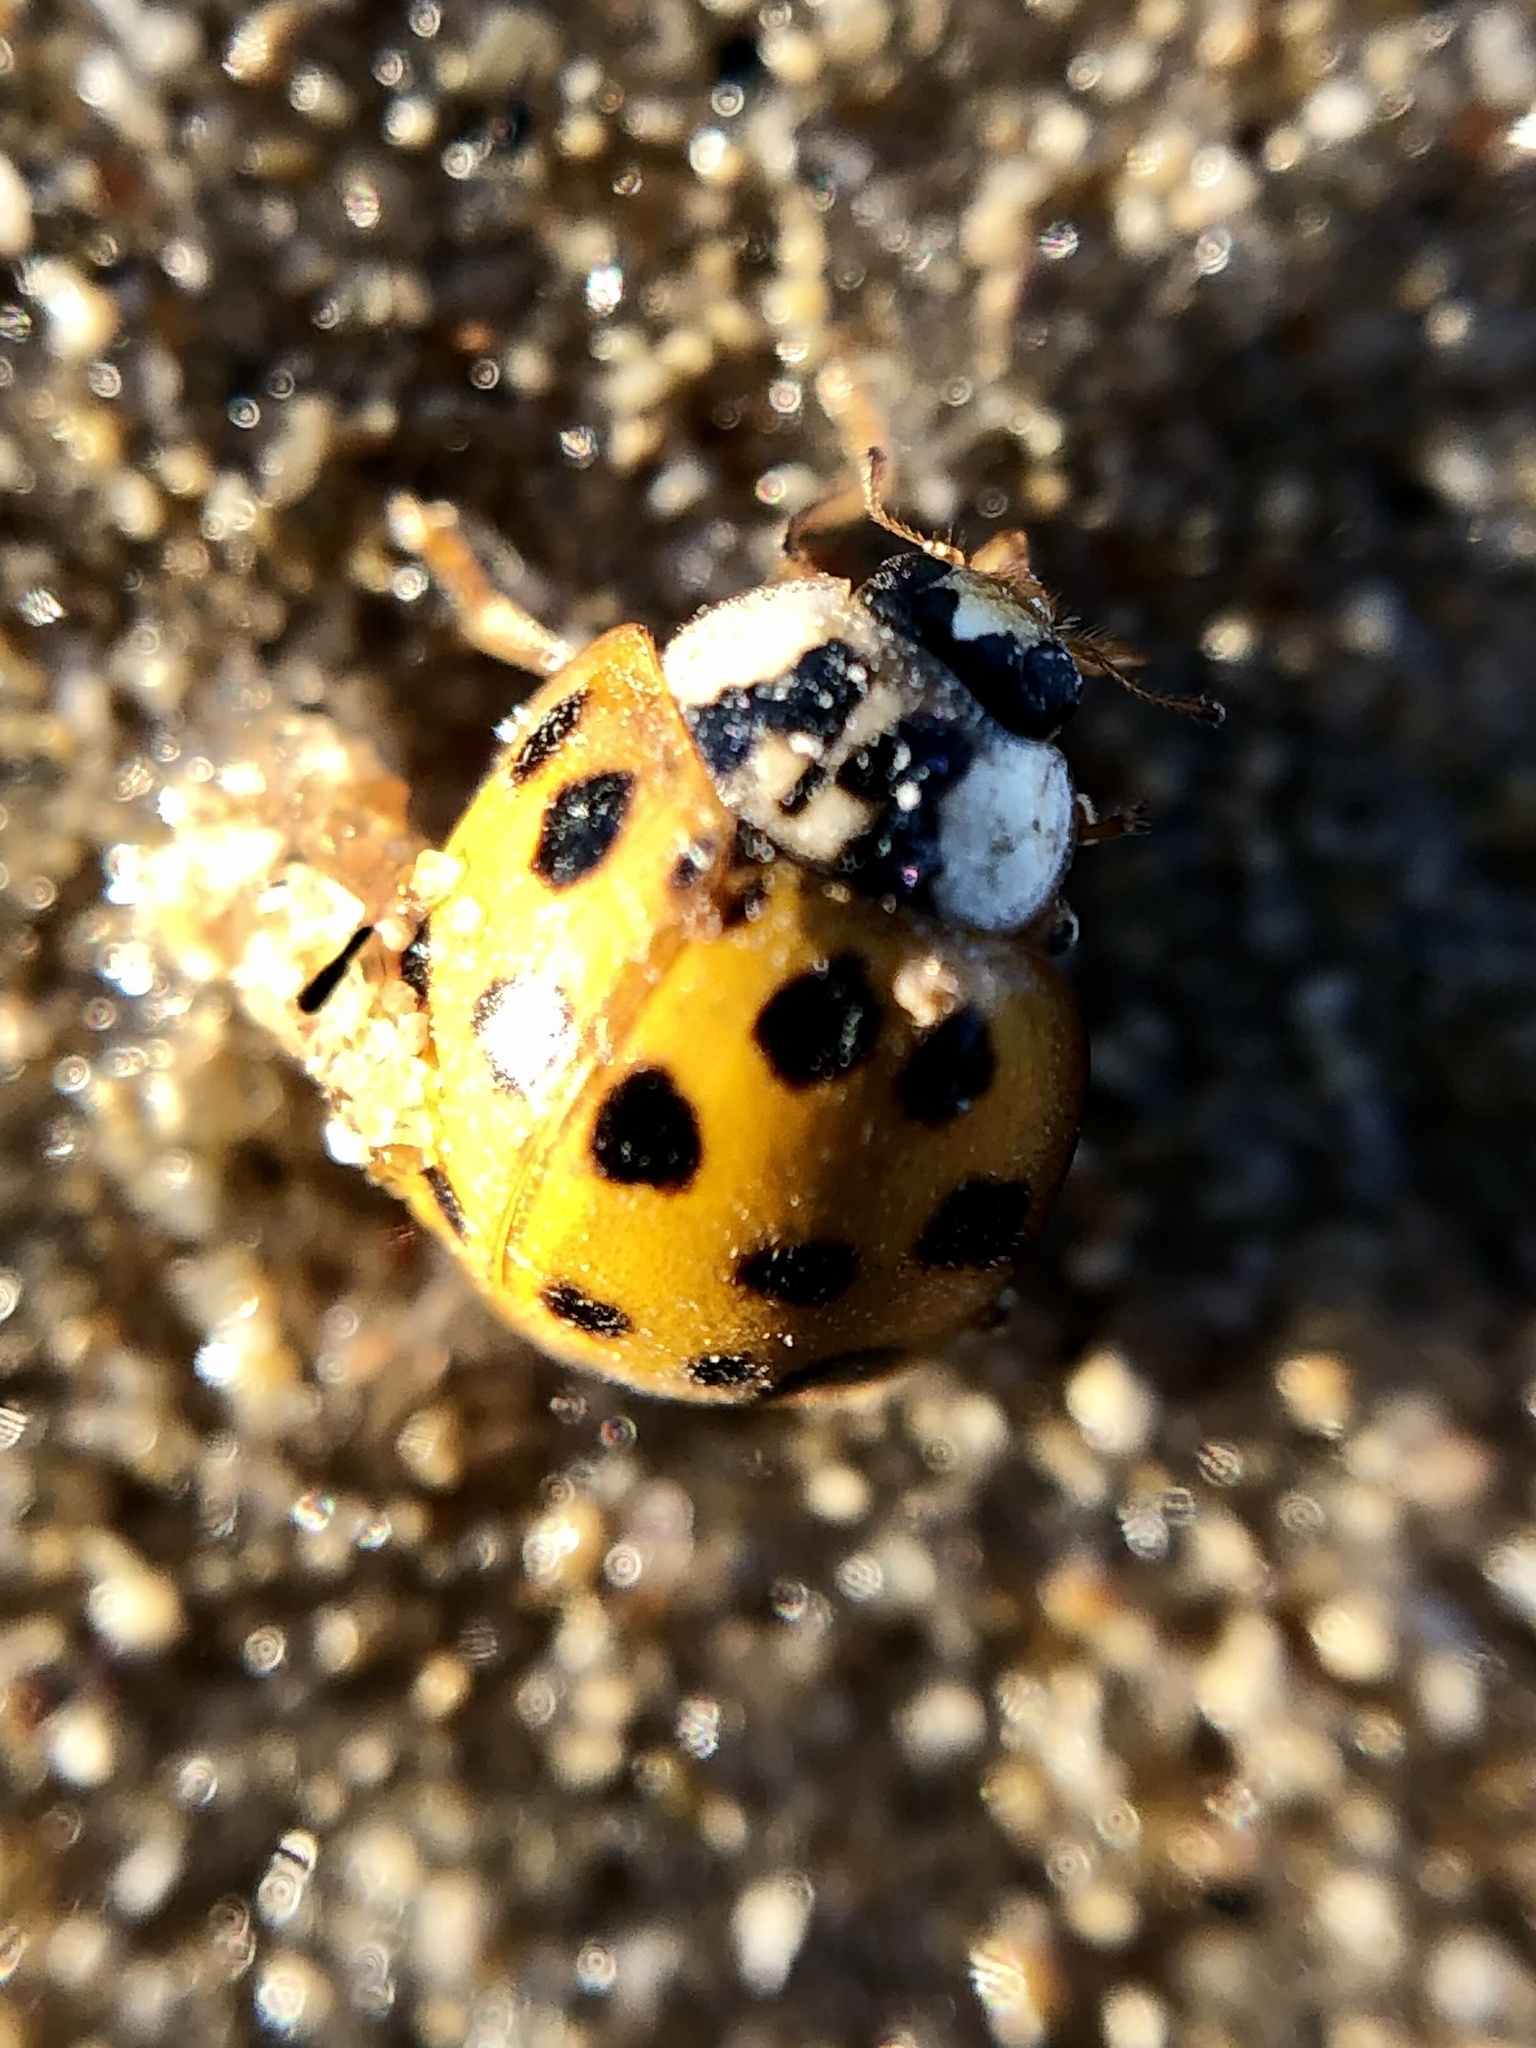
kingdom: Animalia
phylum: Arthropoda
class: Insecta
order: Coleoptera
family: Coccinellidae
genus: Harmonia
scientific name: Harmonia axyridis
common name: Harlequin ladybird
